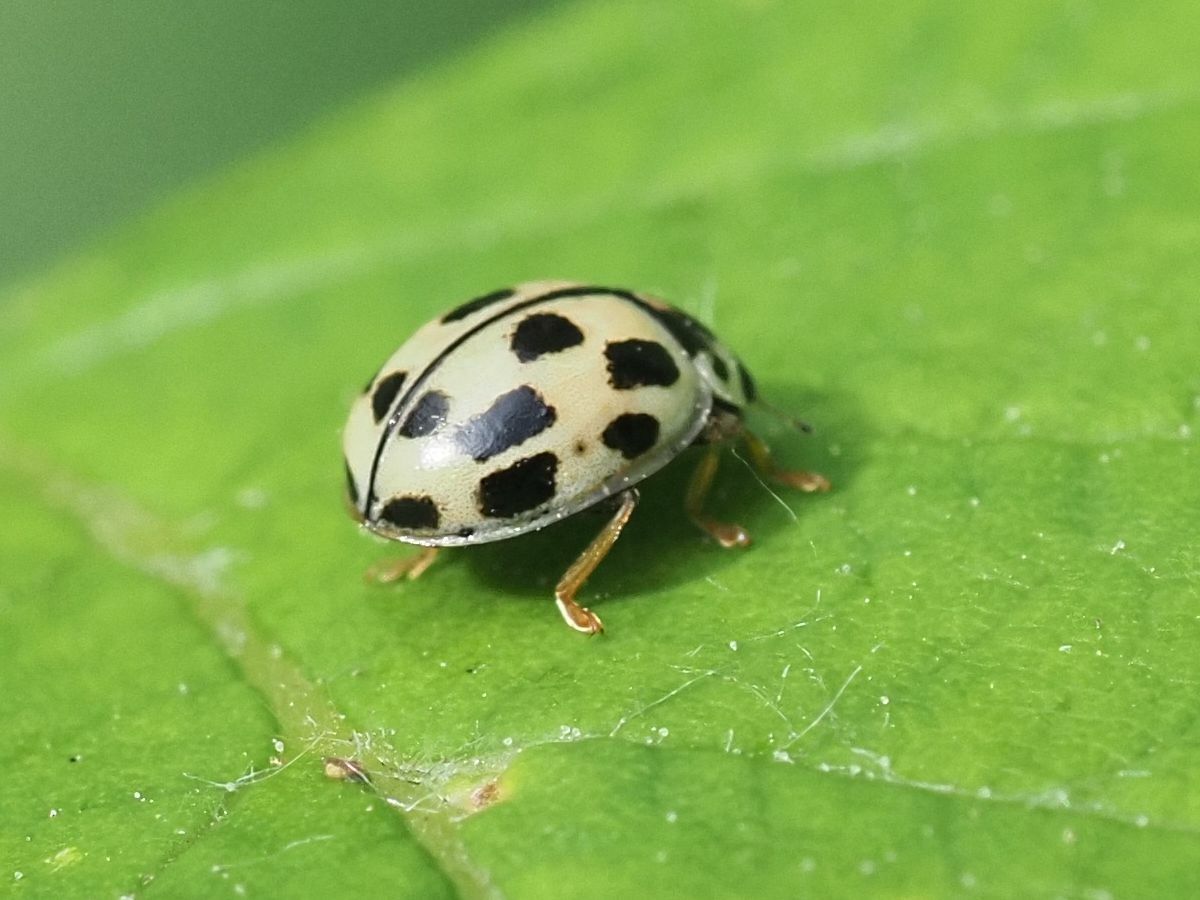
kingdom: Animalia
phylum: Arthropoda
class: Insecta
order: Coleoptera
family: Coccinellidae
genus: Propylaea
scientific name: Propylaea quatuordecimpunctata
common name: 14-spotted ladybird beetle
